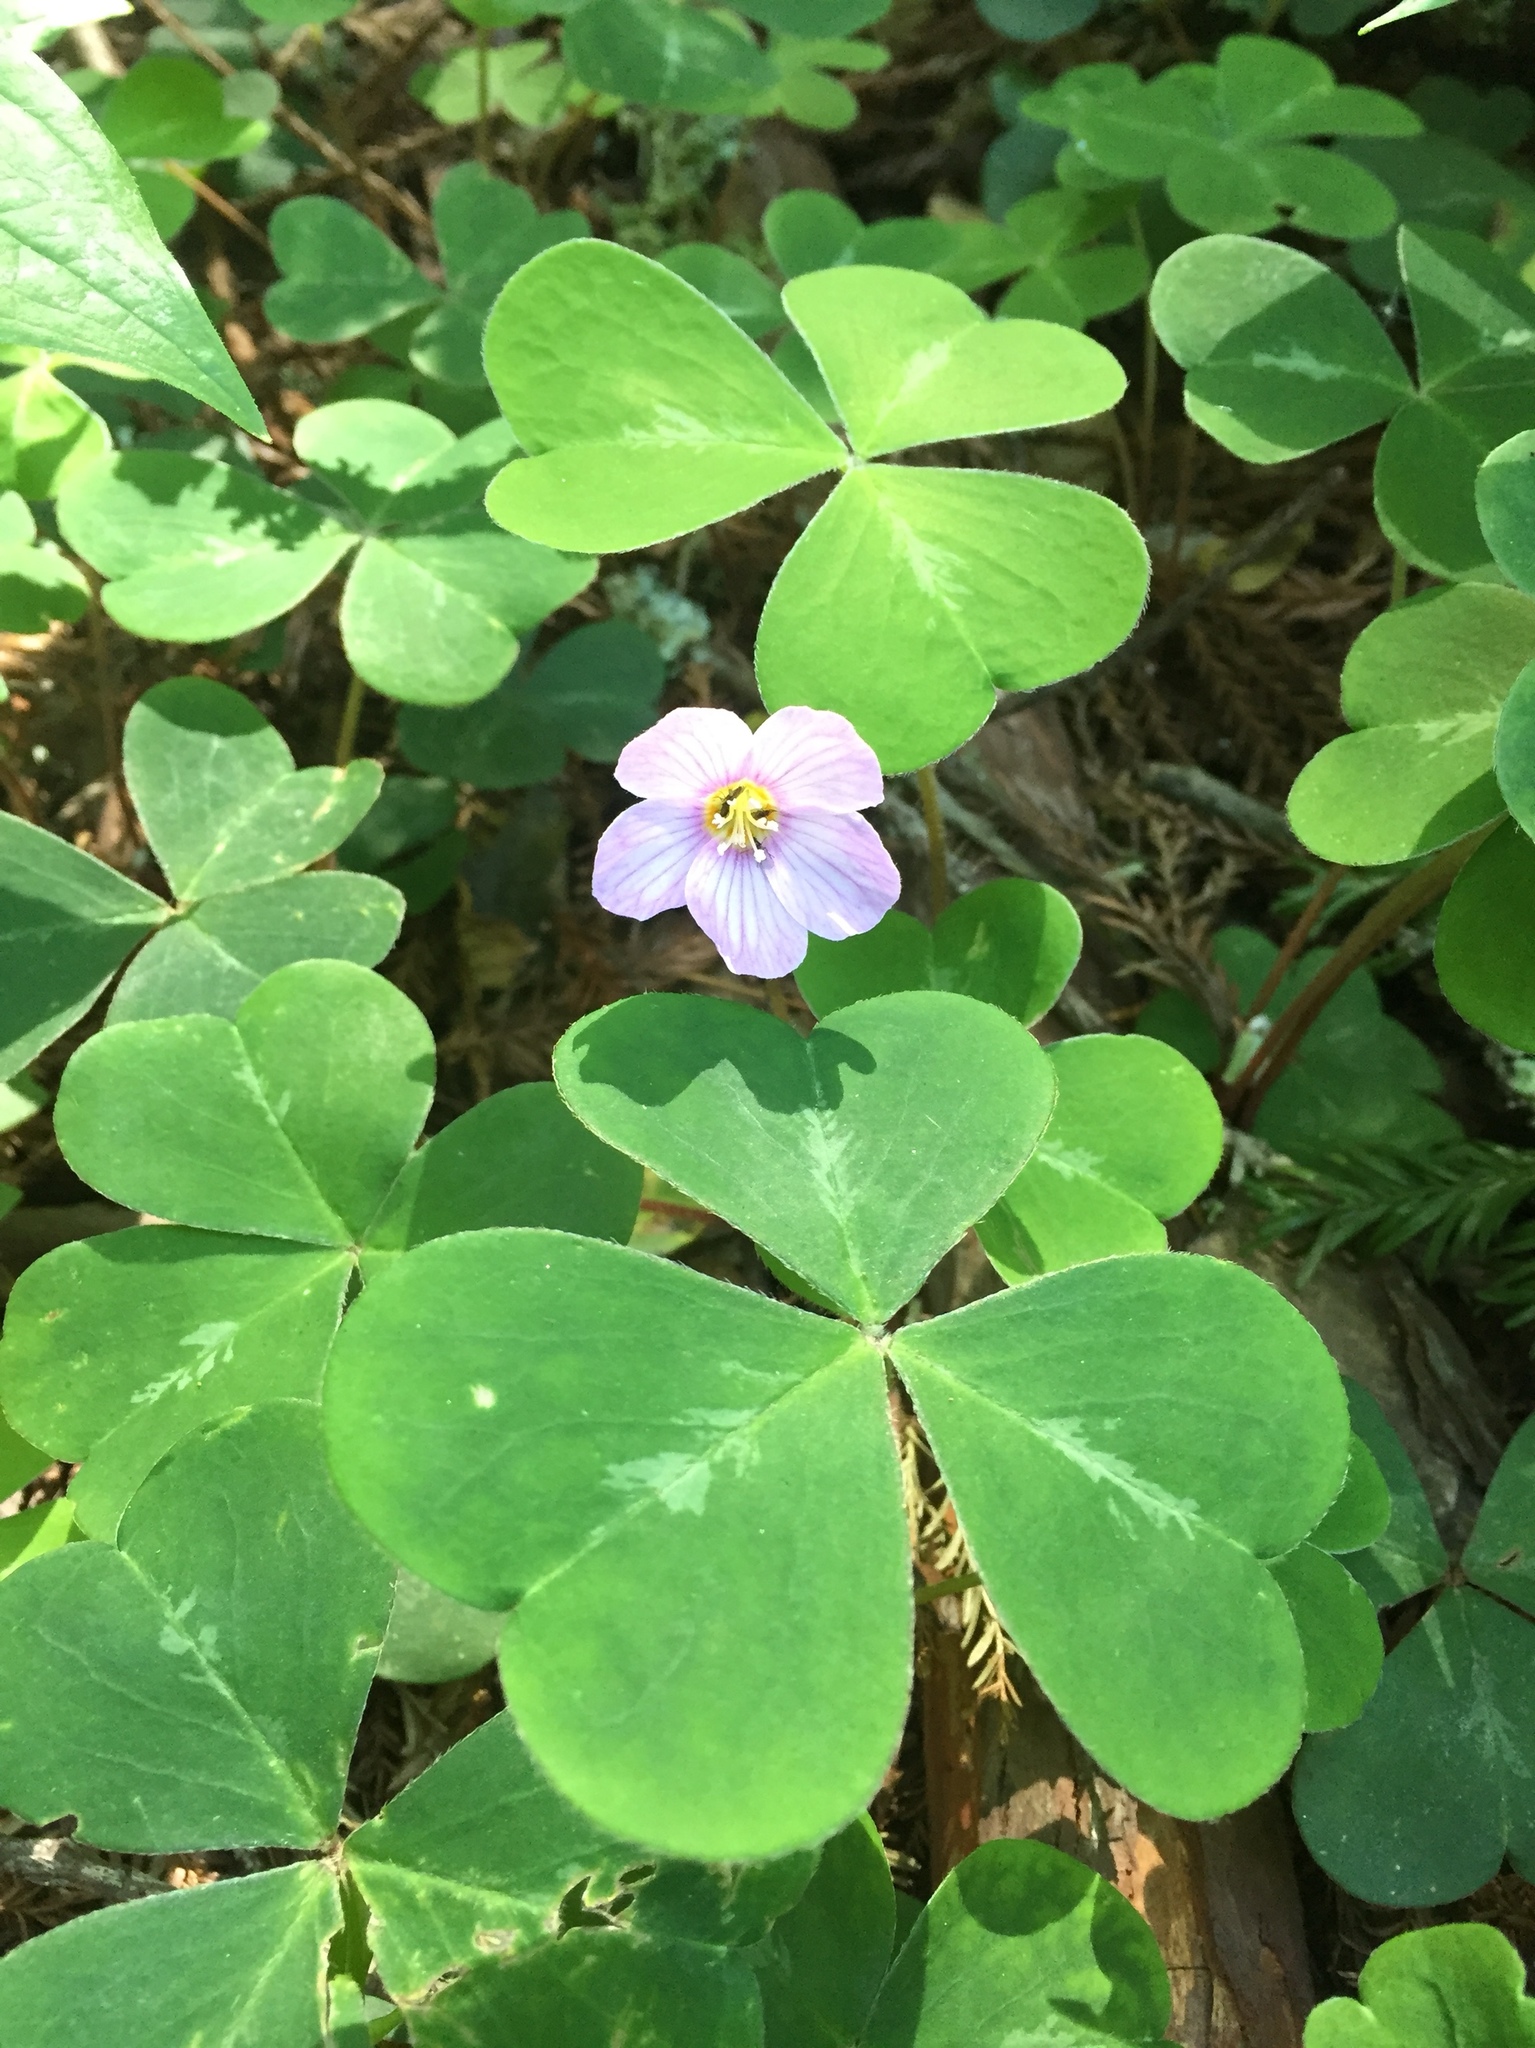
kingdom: Plantae
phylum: Tracheophyta
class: Magnoliopsida
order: Oxalidales
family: Oxalidaceae
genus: Oxalis
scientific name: Oxalis oregana
